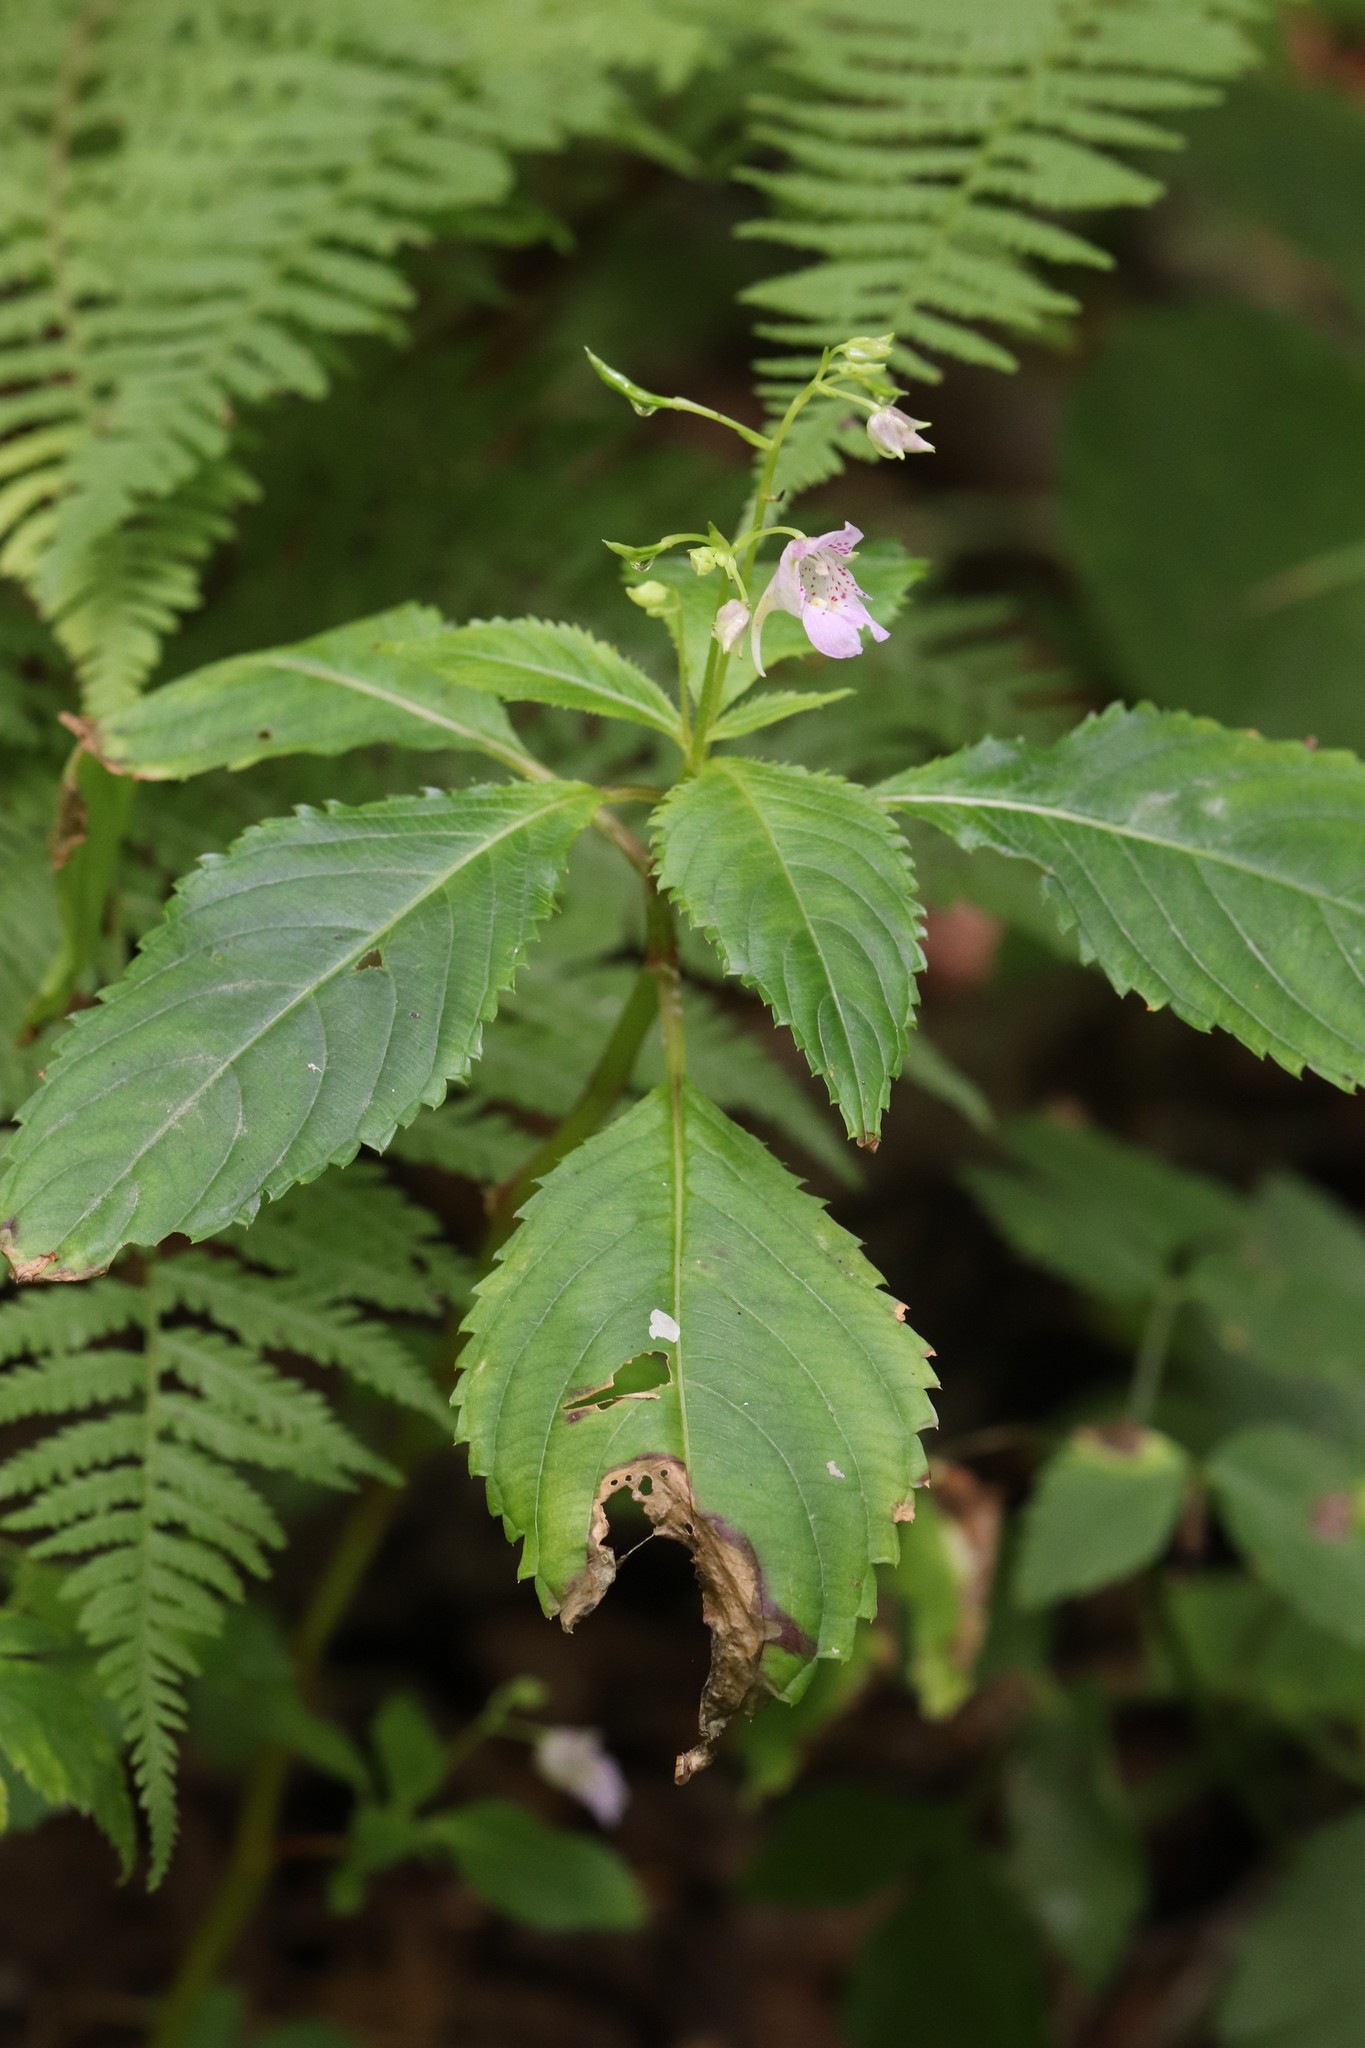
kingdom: Plantae
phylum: Tracheophyta
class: Magnoliopsida
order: Ericales
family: Balsaminaceae
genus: Impatiens
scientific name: Impatiens furcillata
